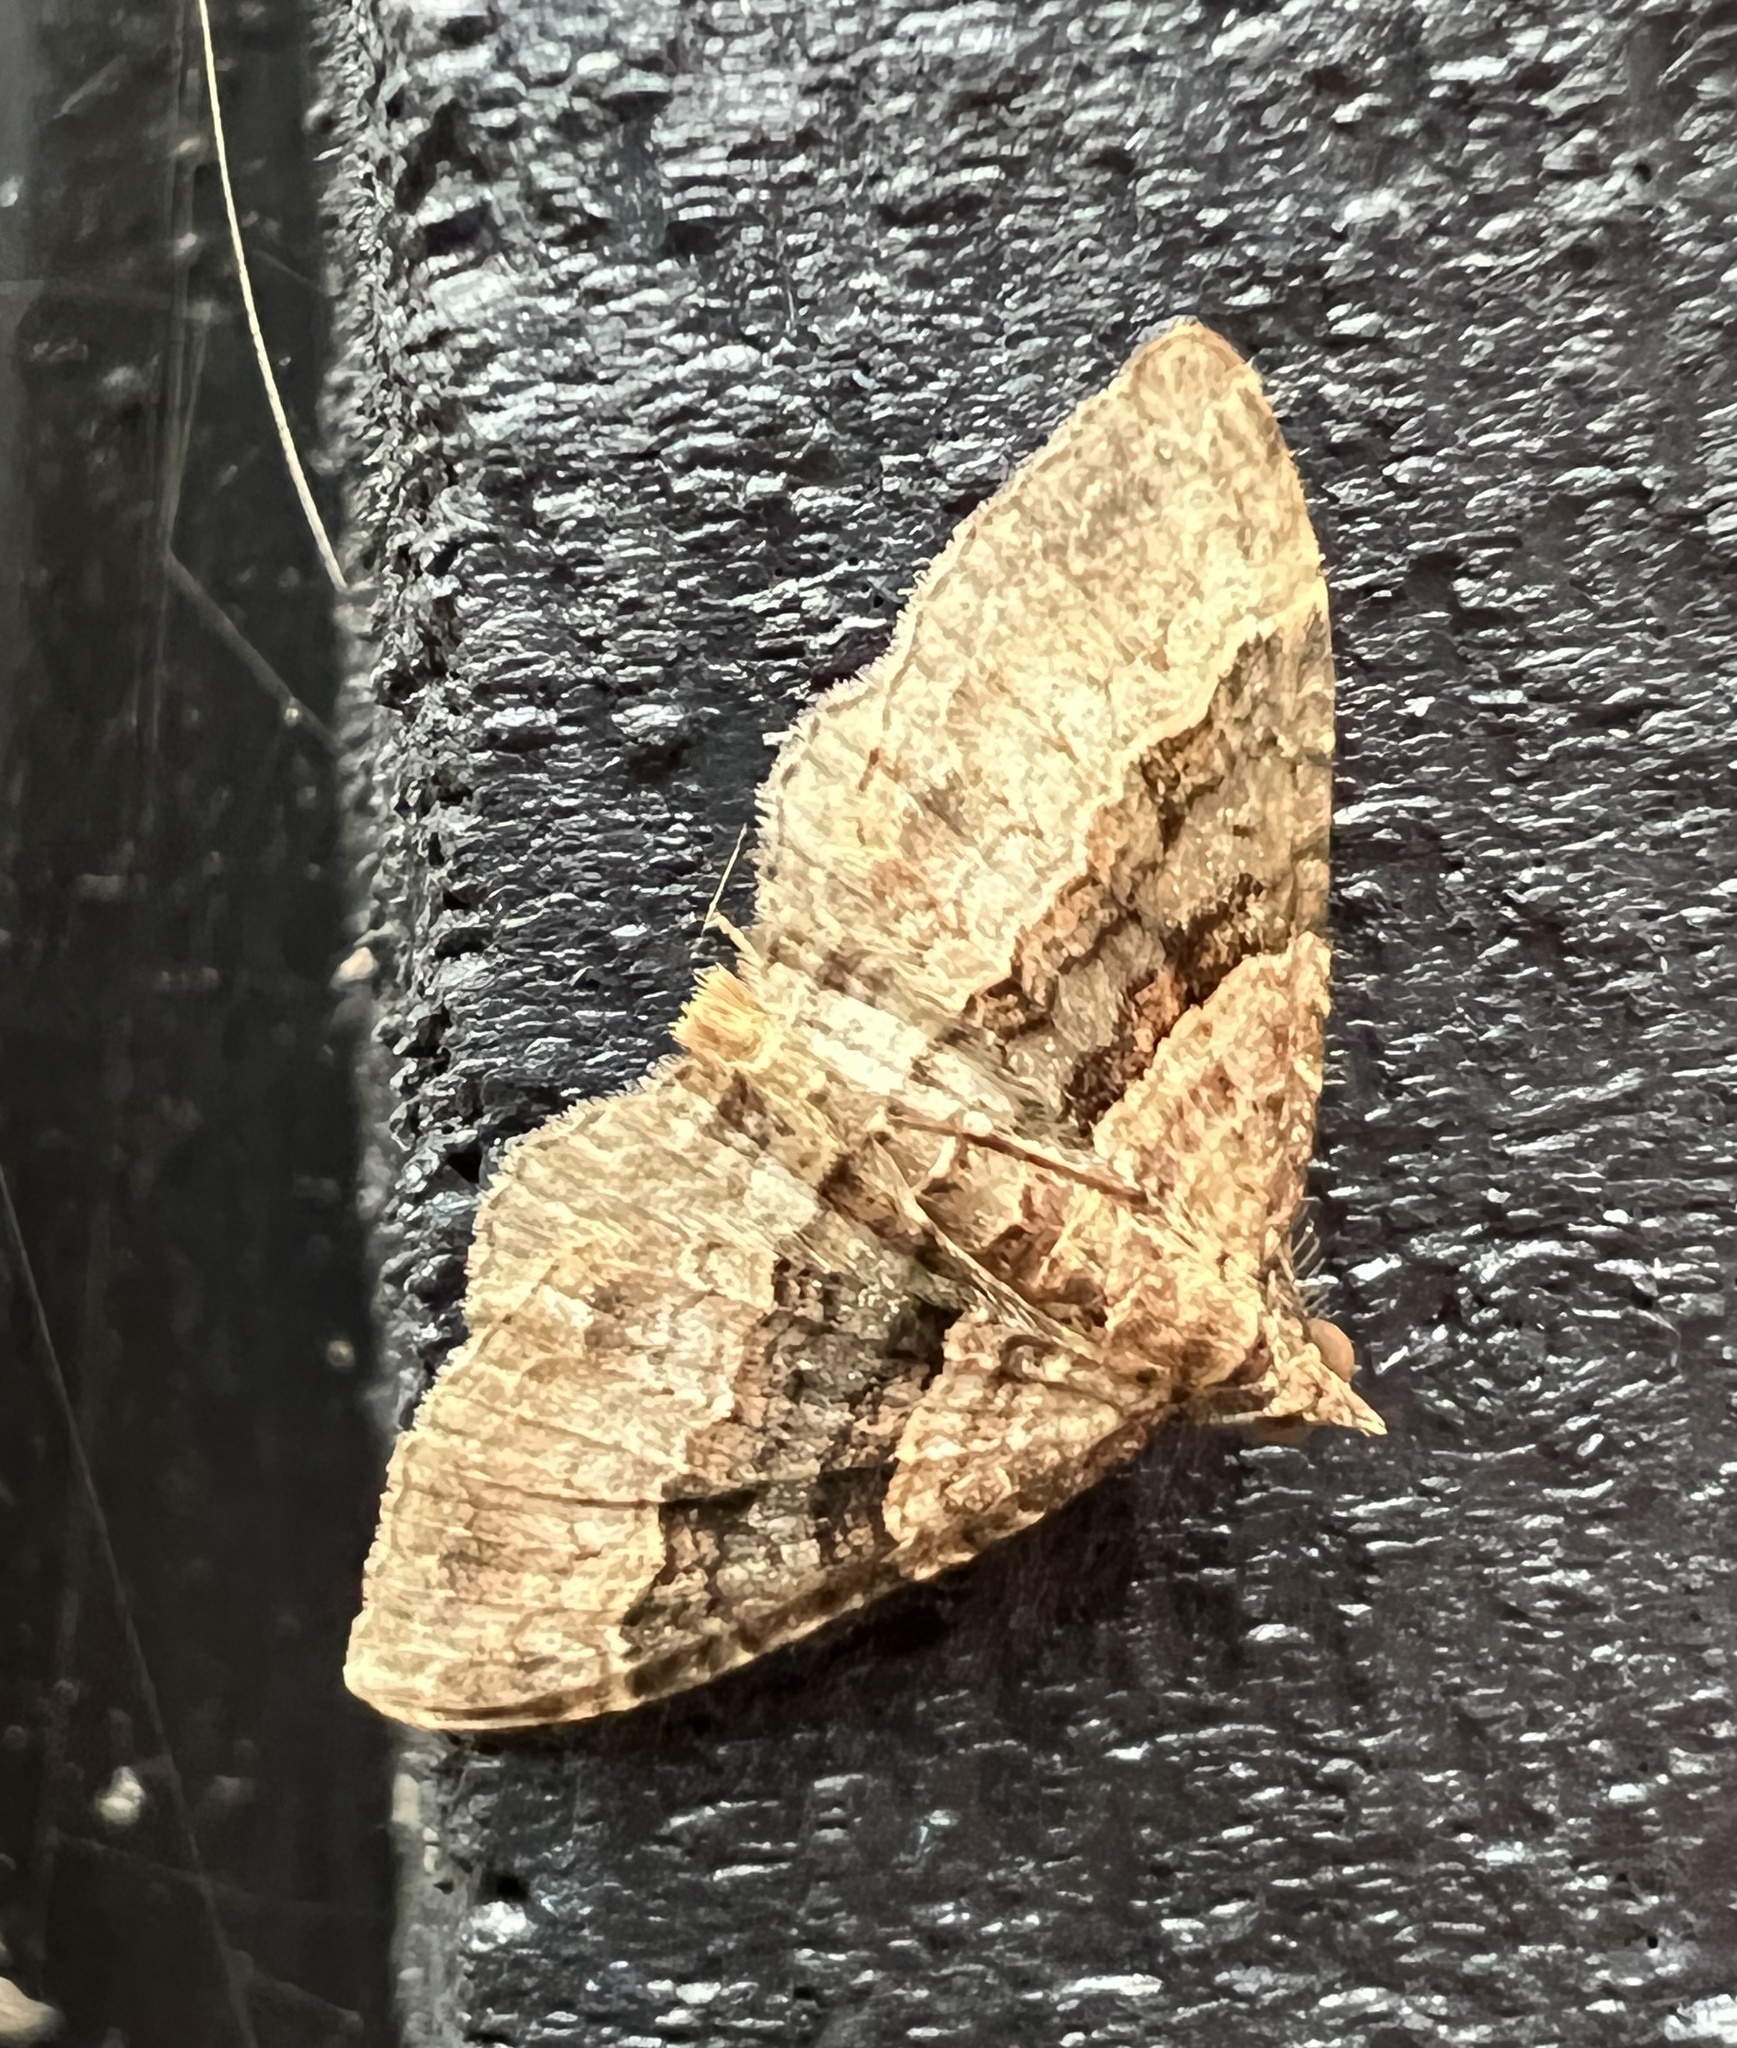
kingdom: Animalia
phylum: Arthropoda
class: Insecta
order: Lepidoptera
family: Geometridae
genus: Epyaxa
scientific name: Epyaxa lucidata
